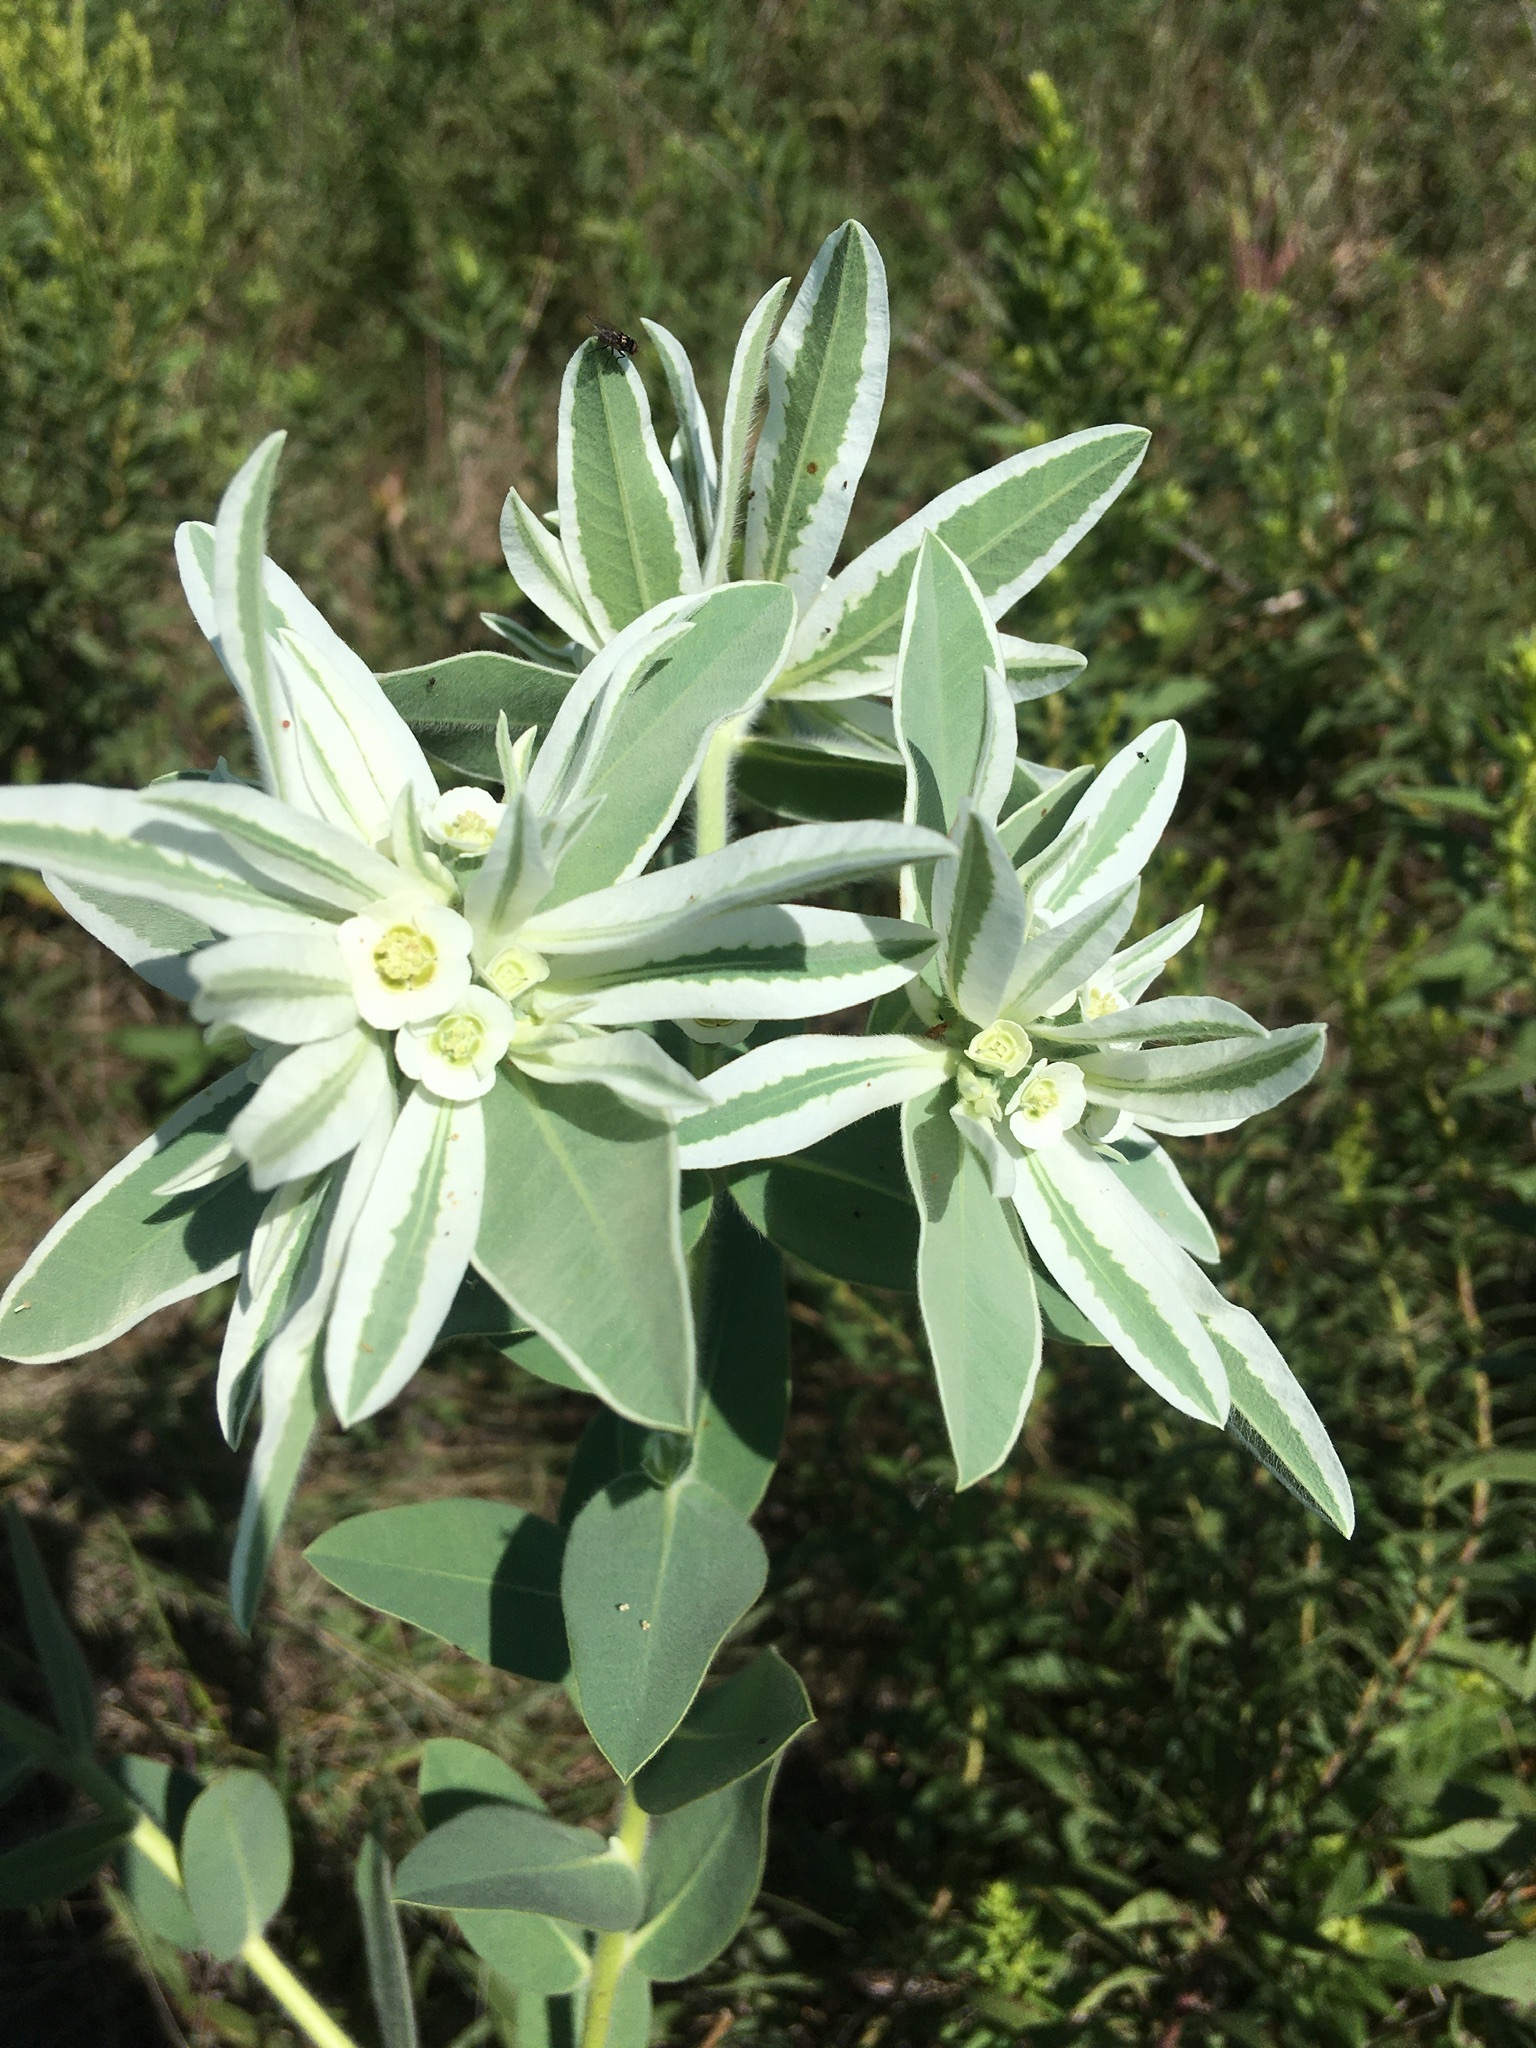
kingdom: Plantae
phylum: Tracheophyta
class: Magnoliopsida
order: Malpighiales
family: Euphorbiaceae
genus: Euphorbia
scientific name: Euphorbia bicolor
